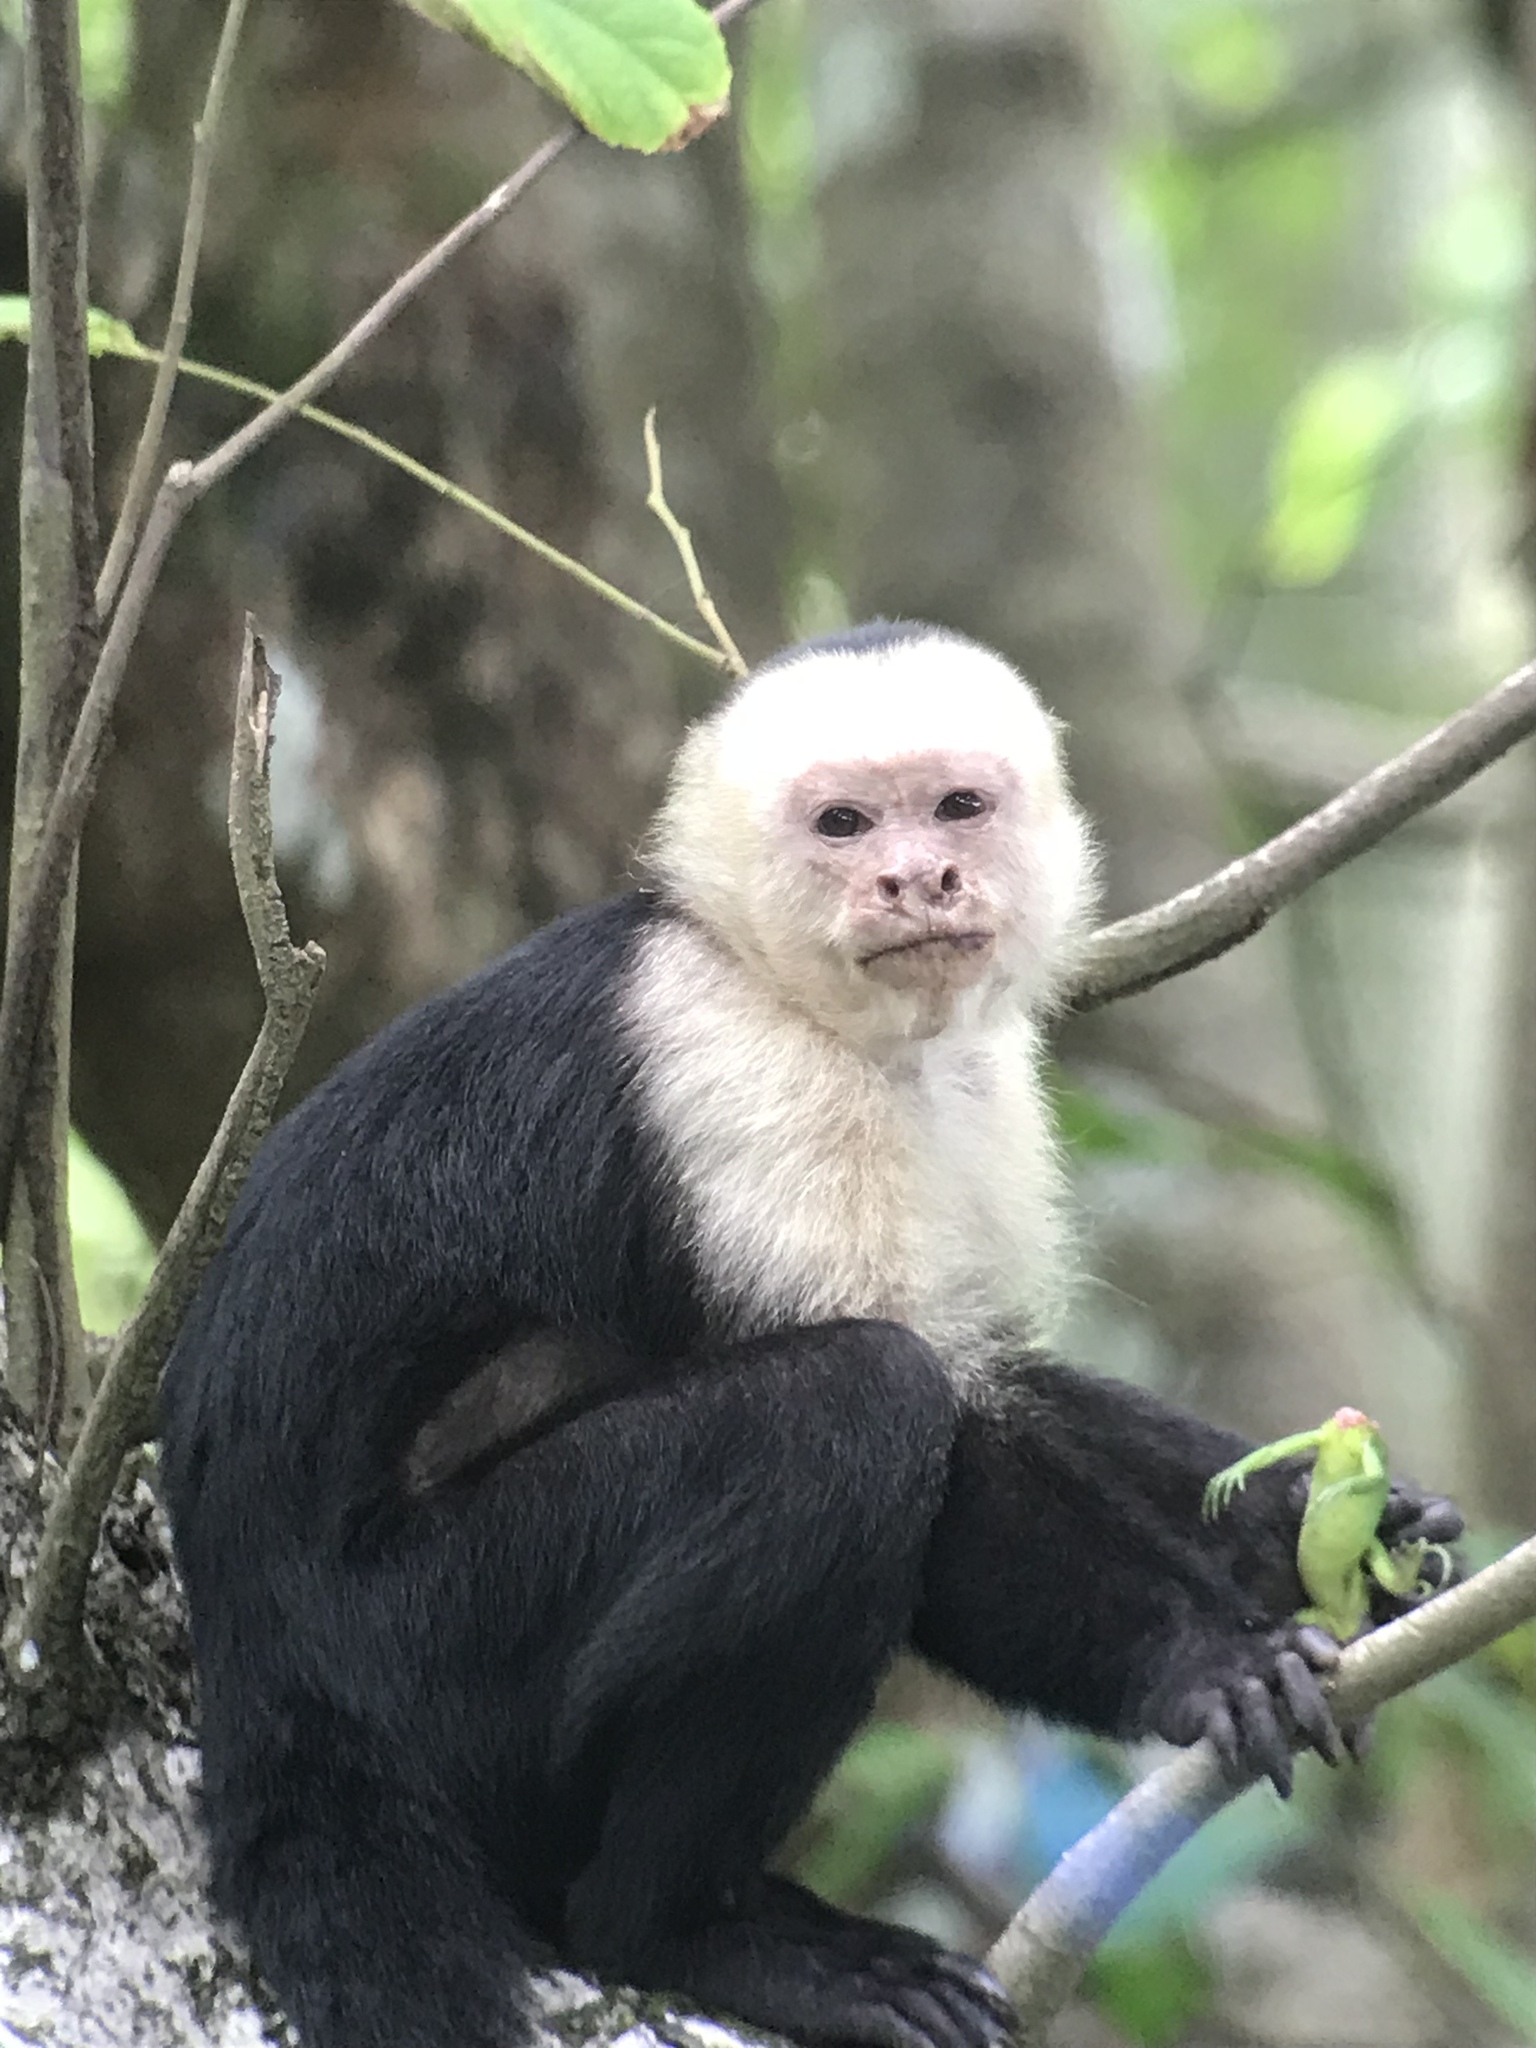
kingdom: Animalia
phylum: Chordata
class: Mammalia
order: Primates
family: Cebidae
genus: Cebus
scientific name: Cebus imitator
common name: Panamanian white-faced capuchin
